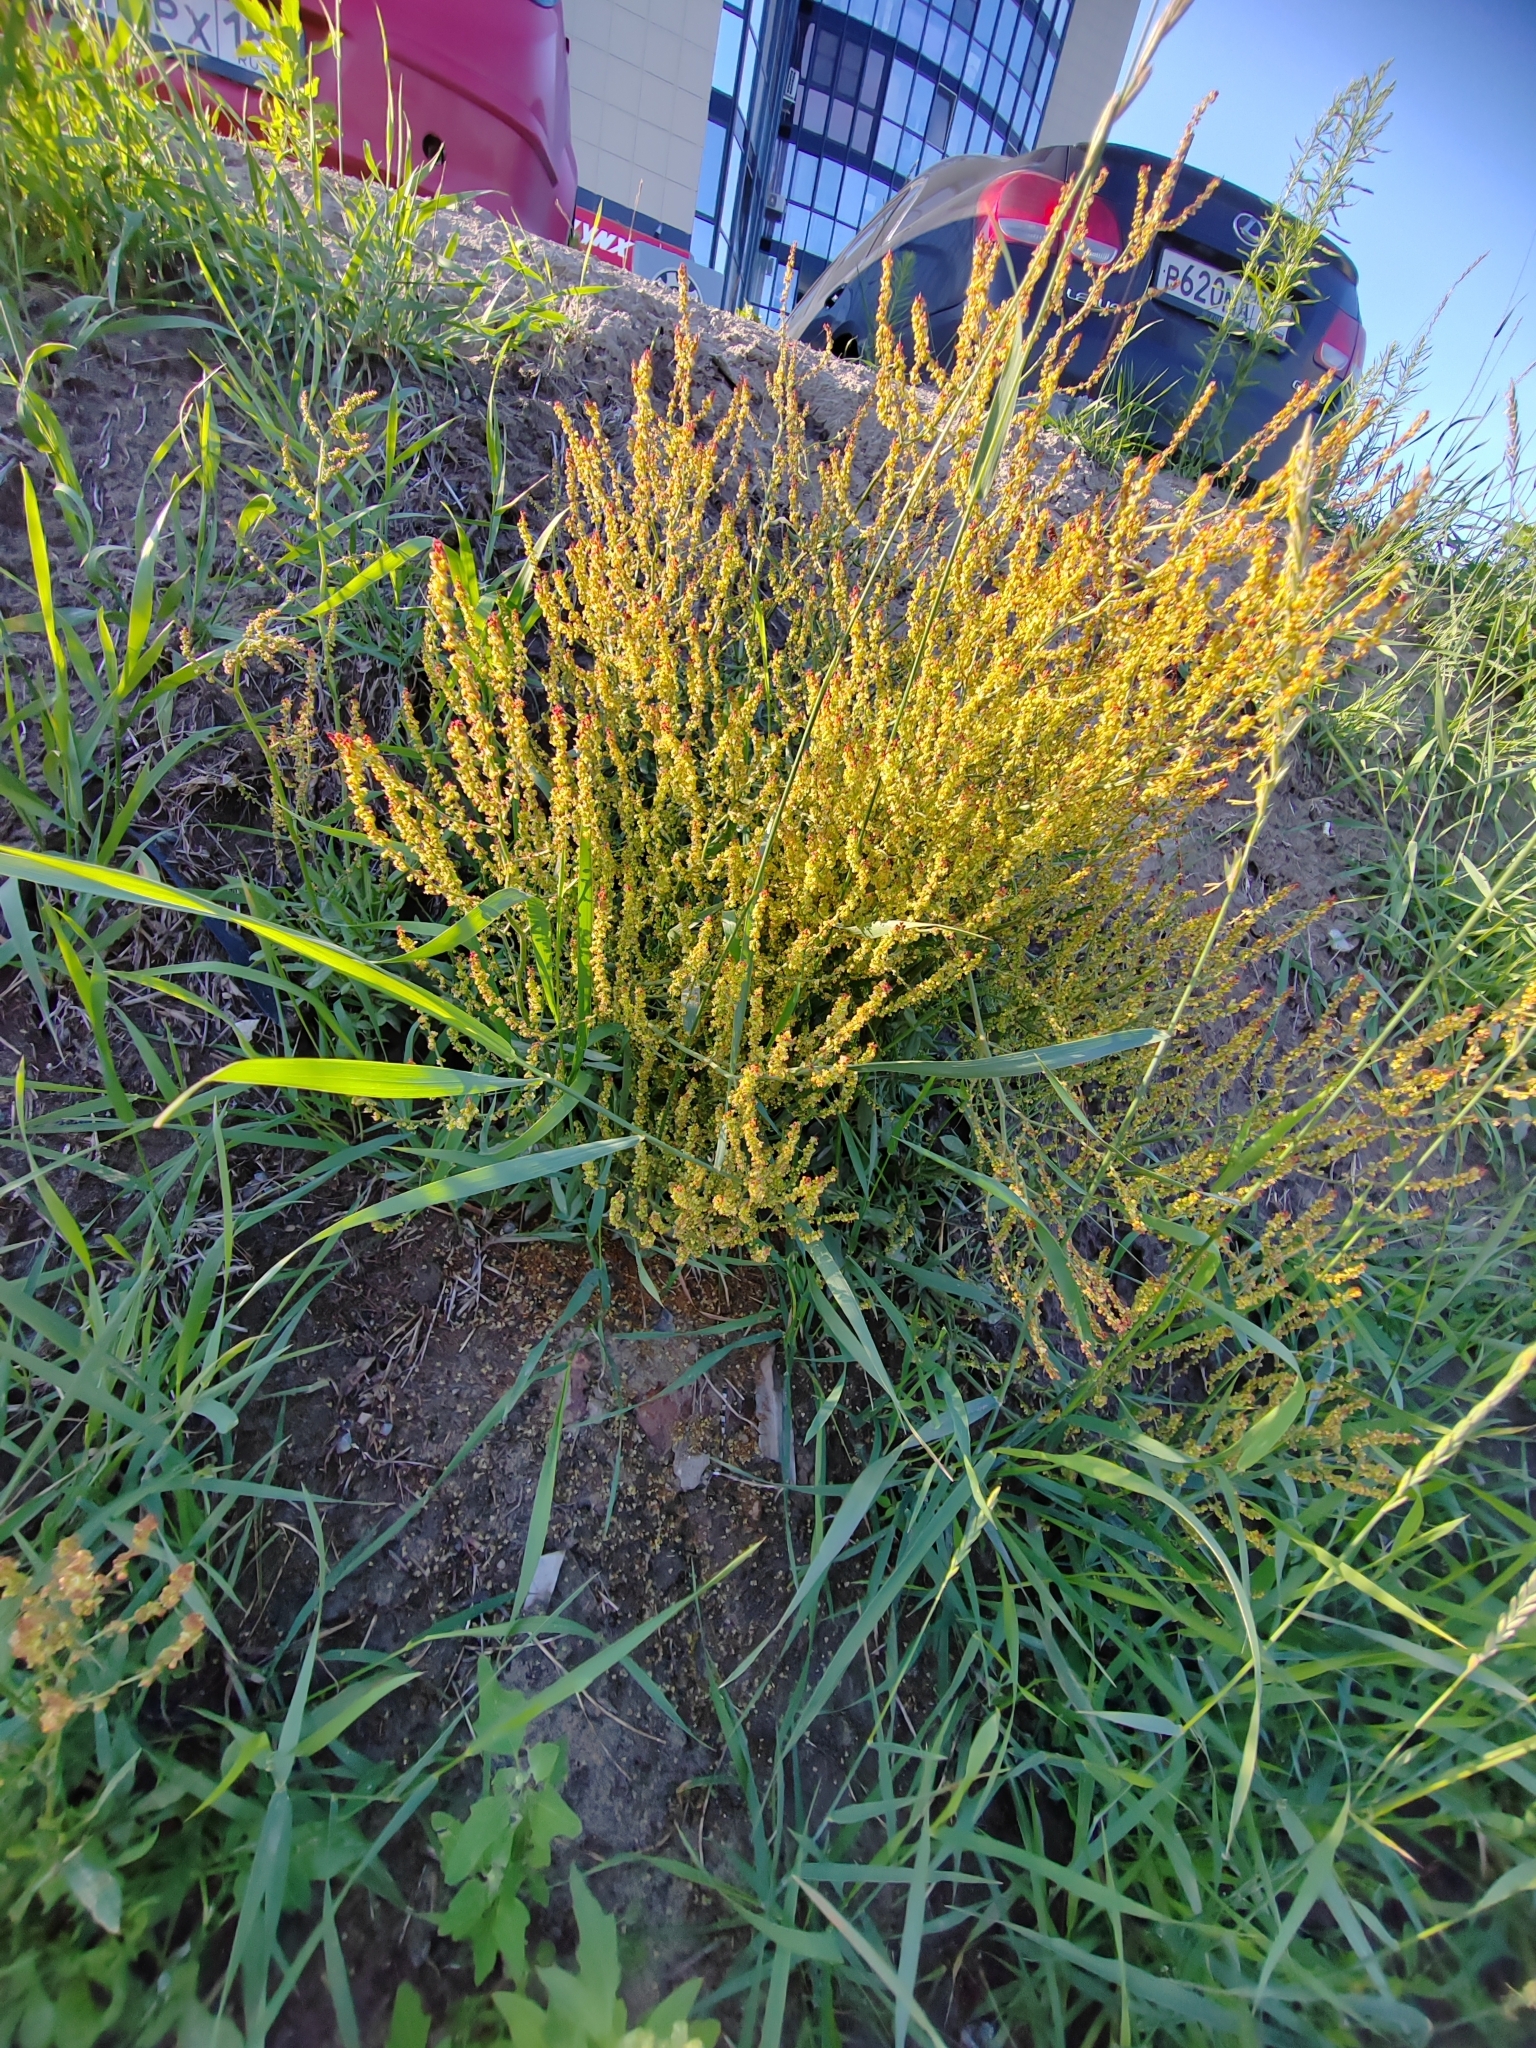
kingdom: Plantae
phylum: Tracheophyta
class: Magnoliopsida
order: Caryophyllales
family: Polygonaceae
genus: Rumex
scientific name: Rumex acetosella
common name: Common sheep sorrel
